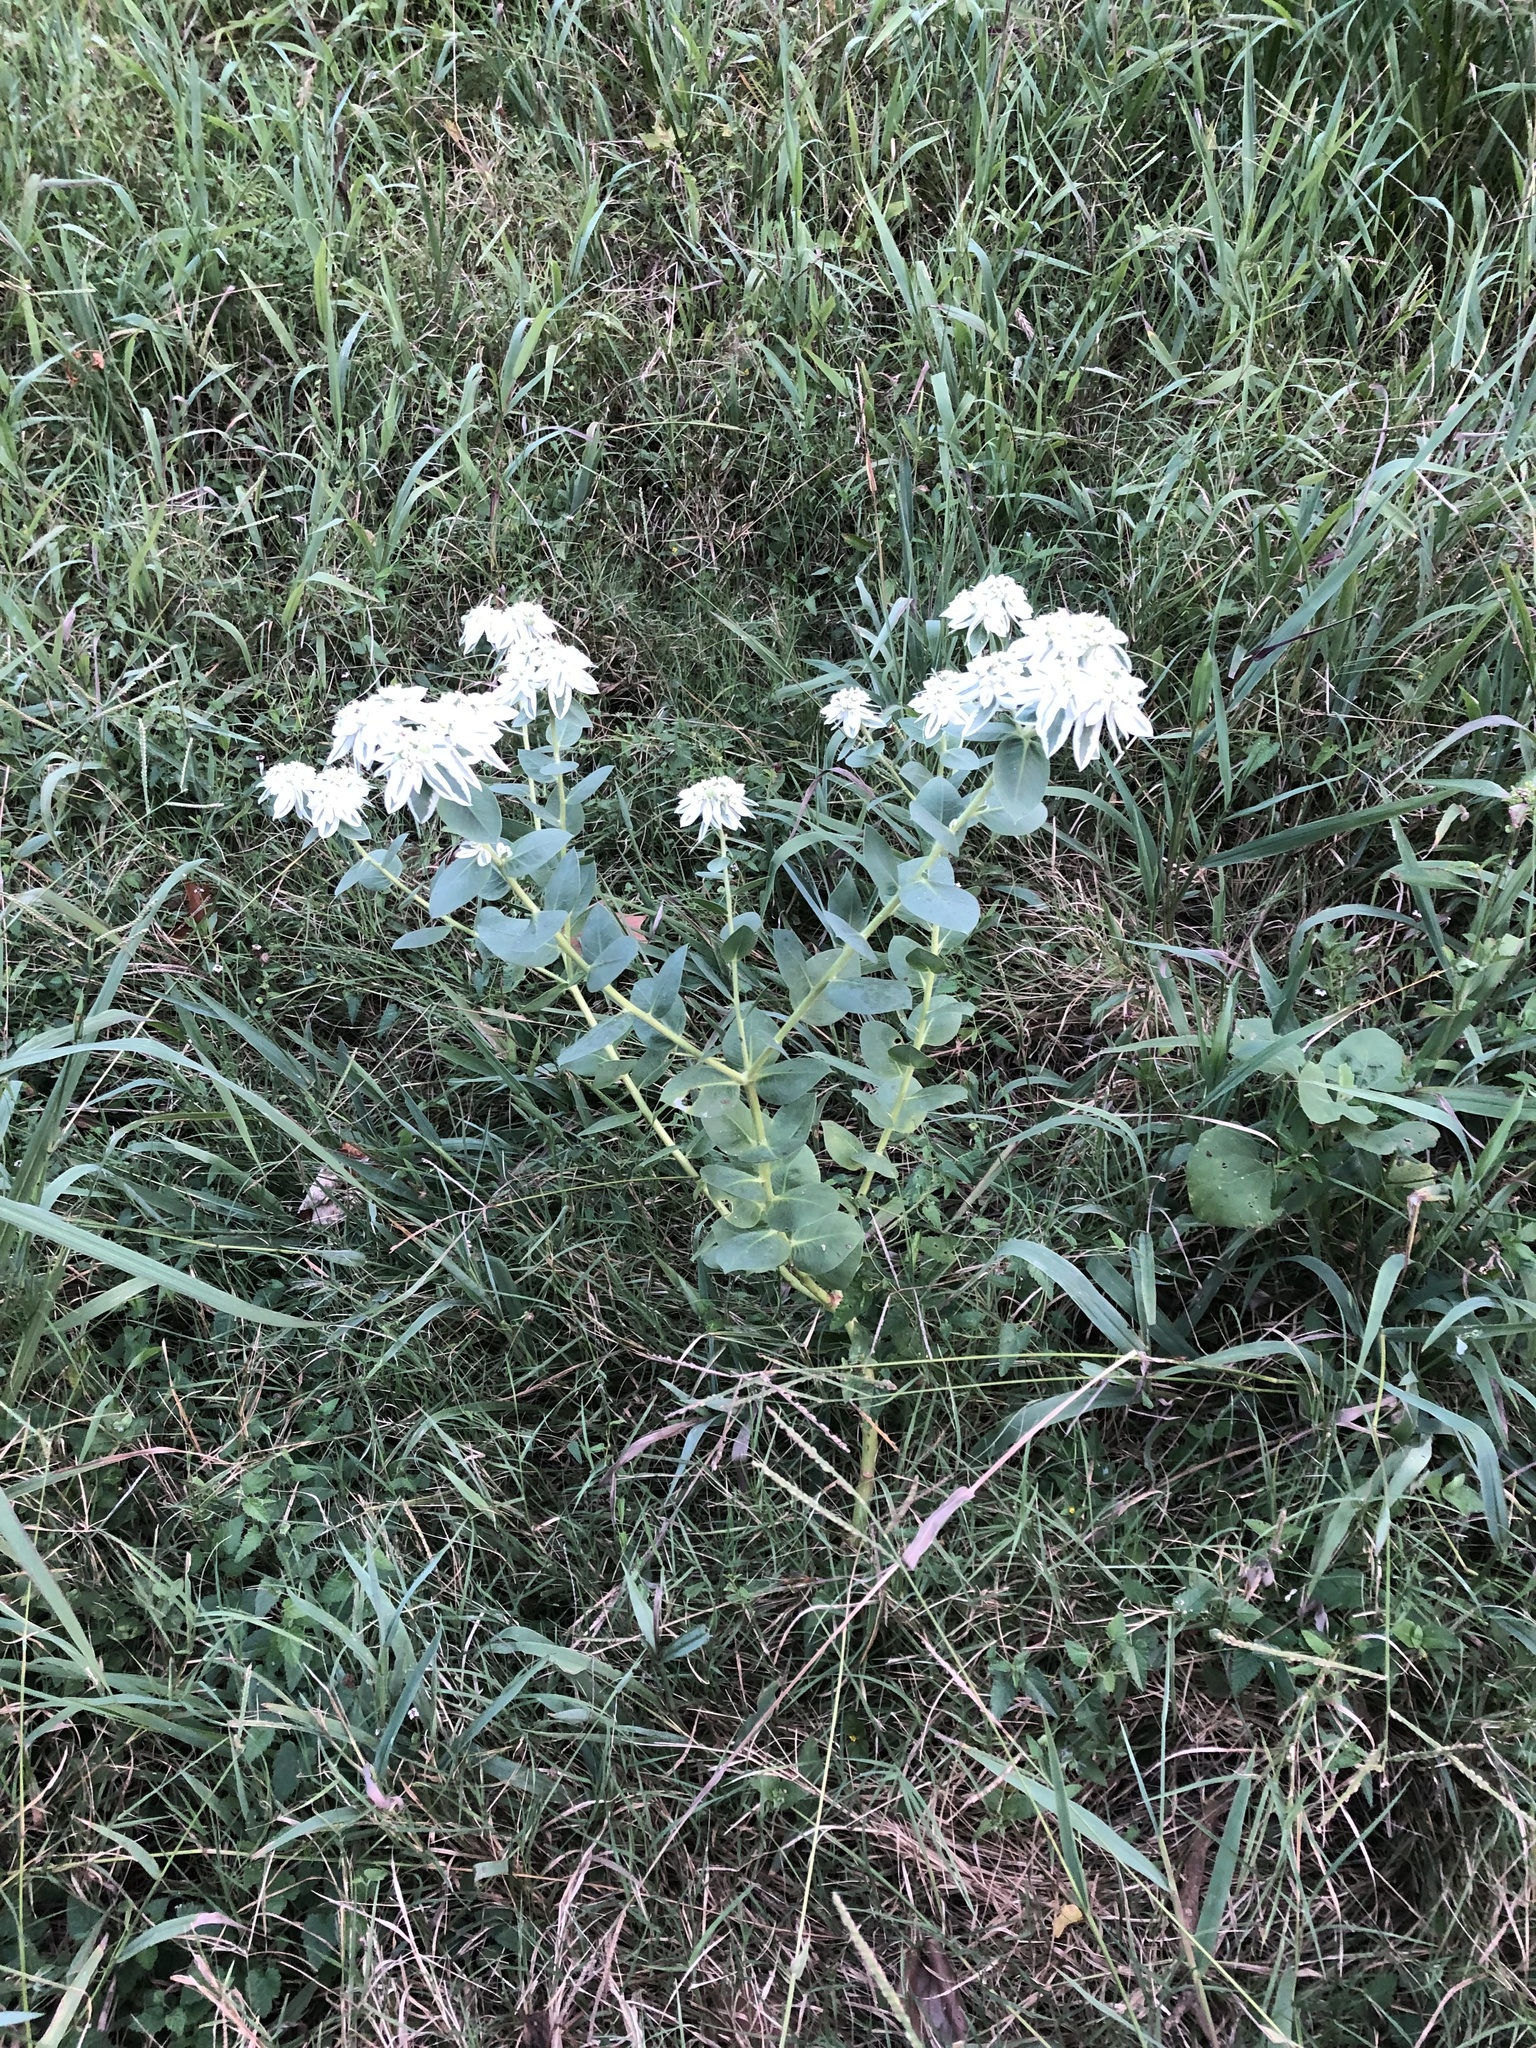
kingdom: Plantae
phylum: Tracheophyta
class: Magnoliopsida
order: Malpighiales
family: Euphorbiaceae
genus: Euphorbia
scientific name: Euphorbia marginata
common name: Ghostweed
